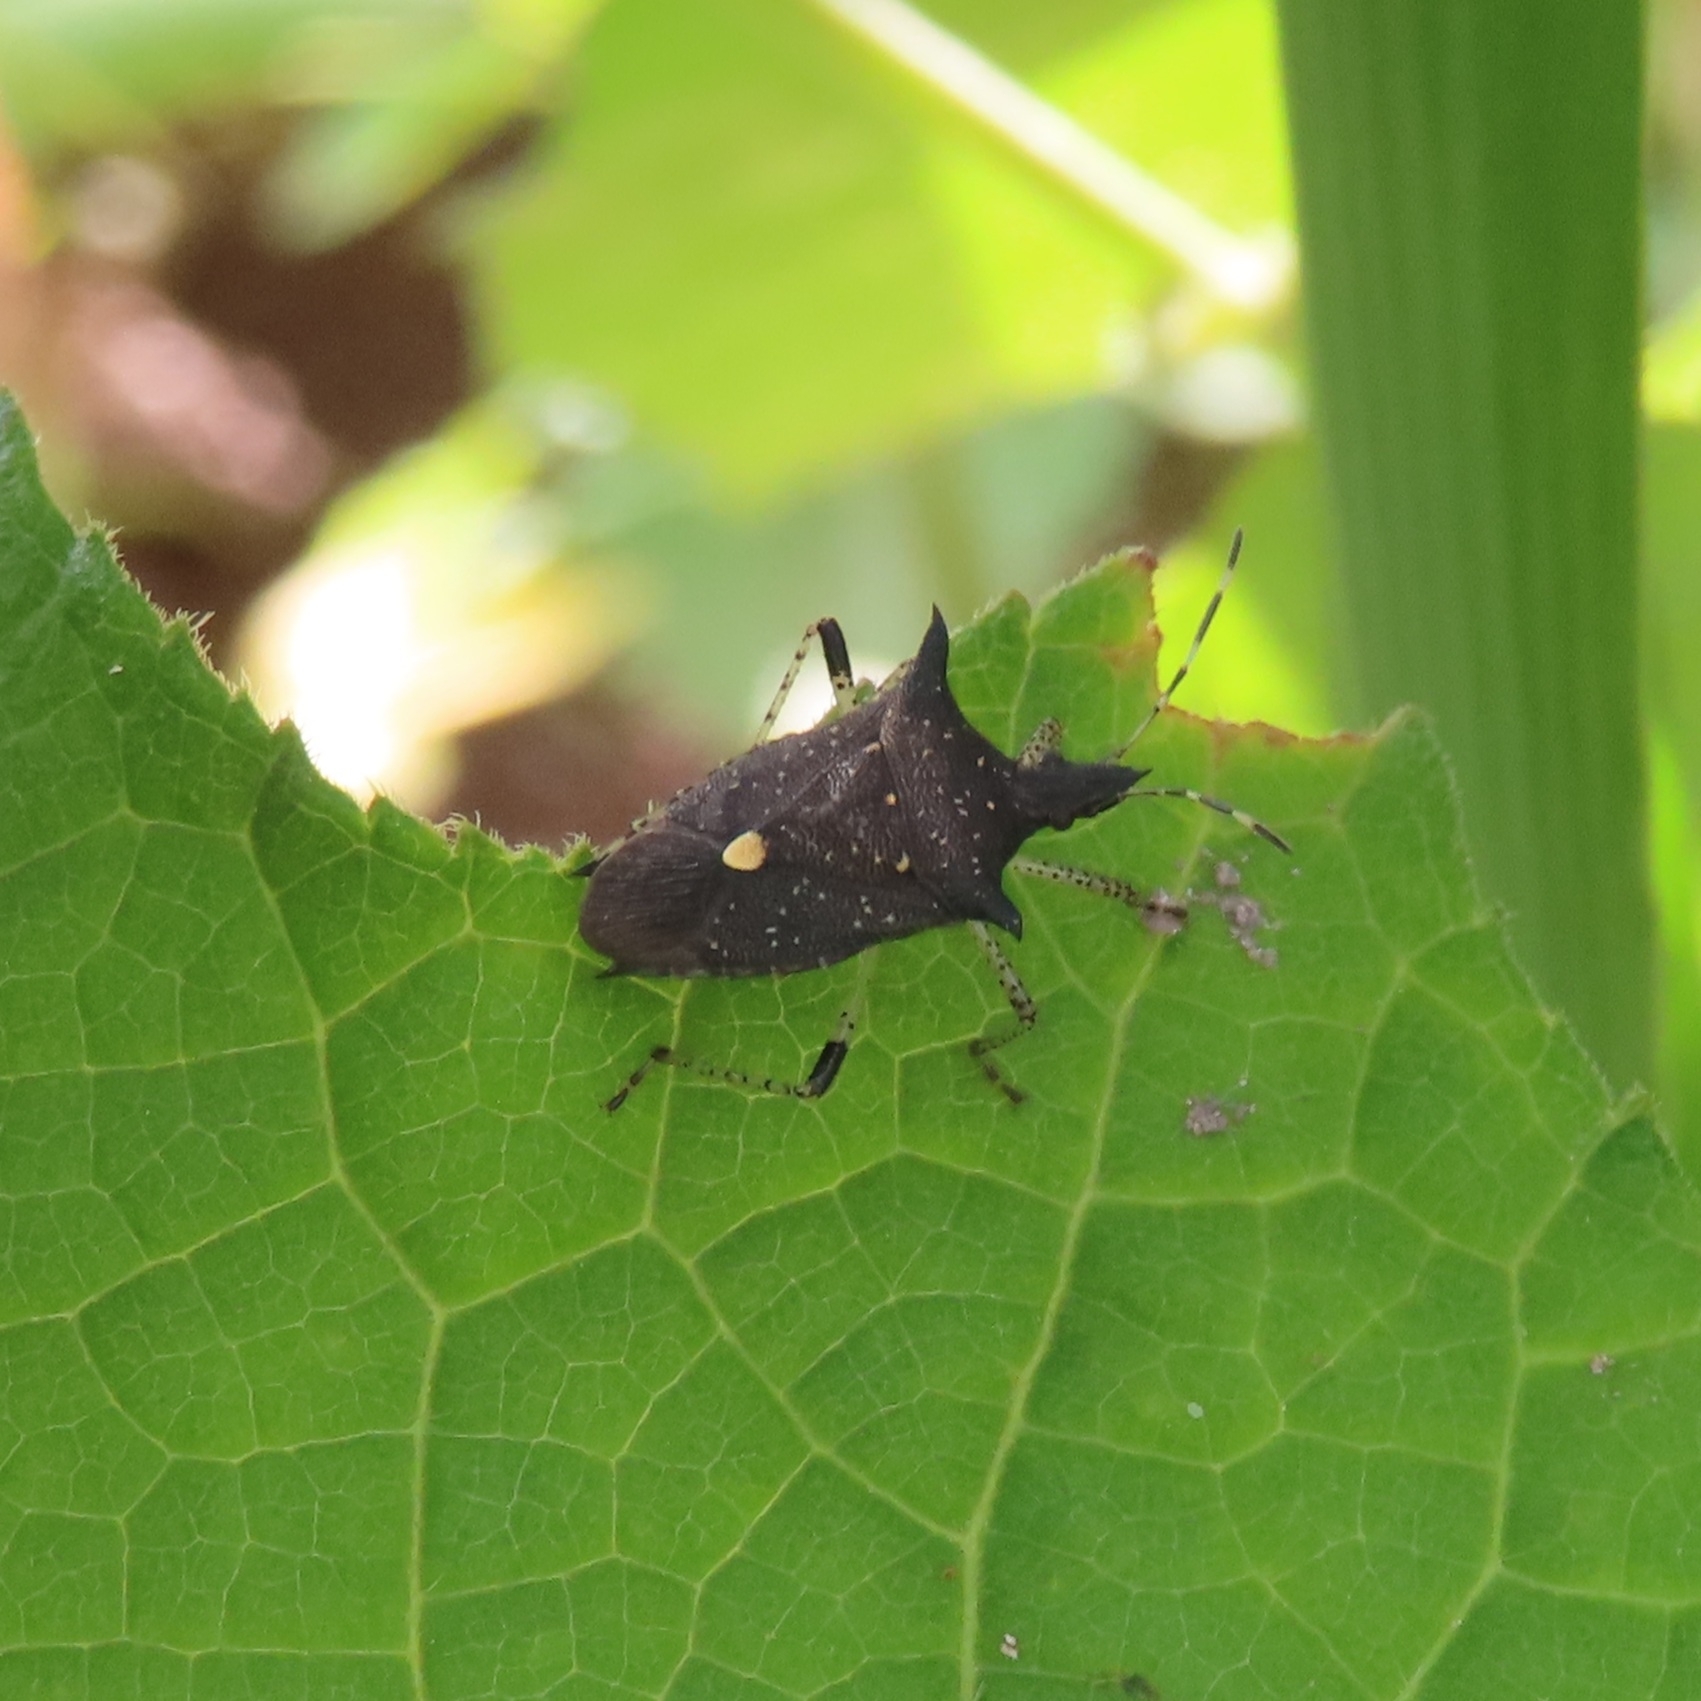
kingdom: Animalia
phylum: Arthropoda
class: Insecta
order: Hemiptera
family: Pentatomidae
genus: Proxys
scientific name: Proxys punctulatus
